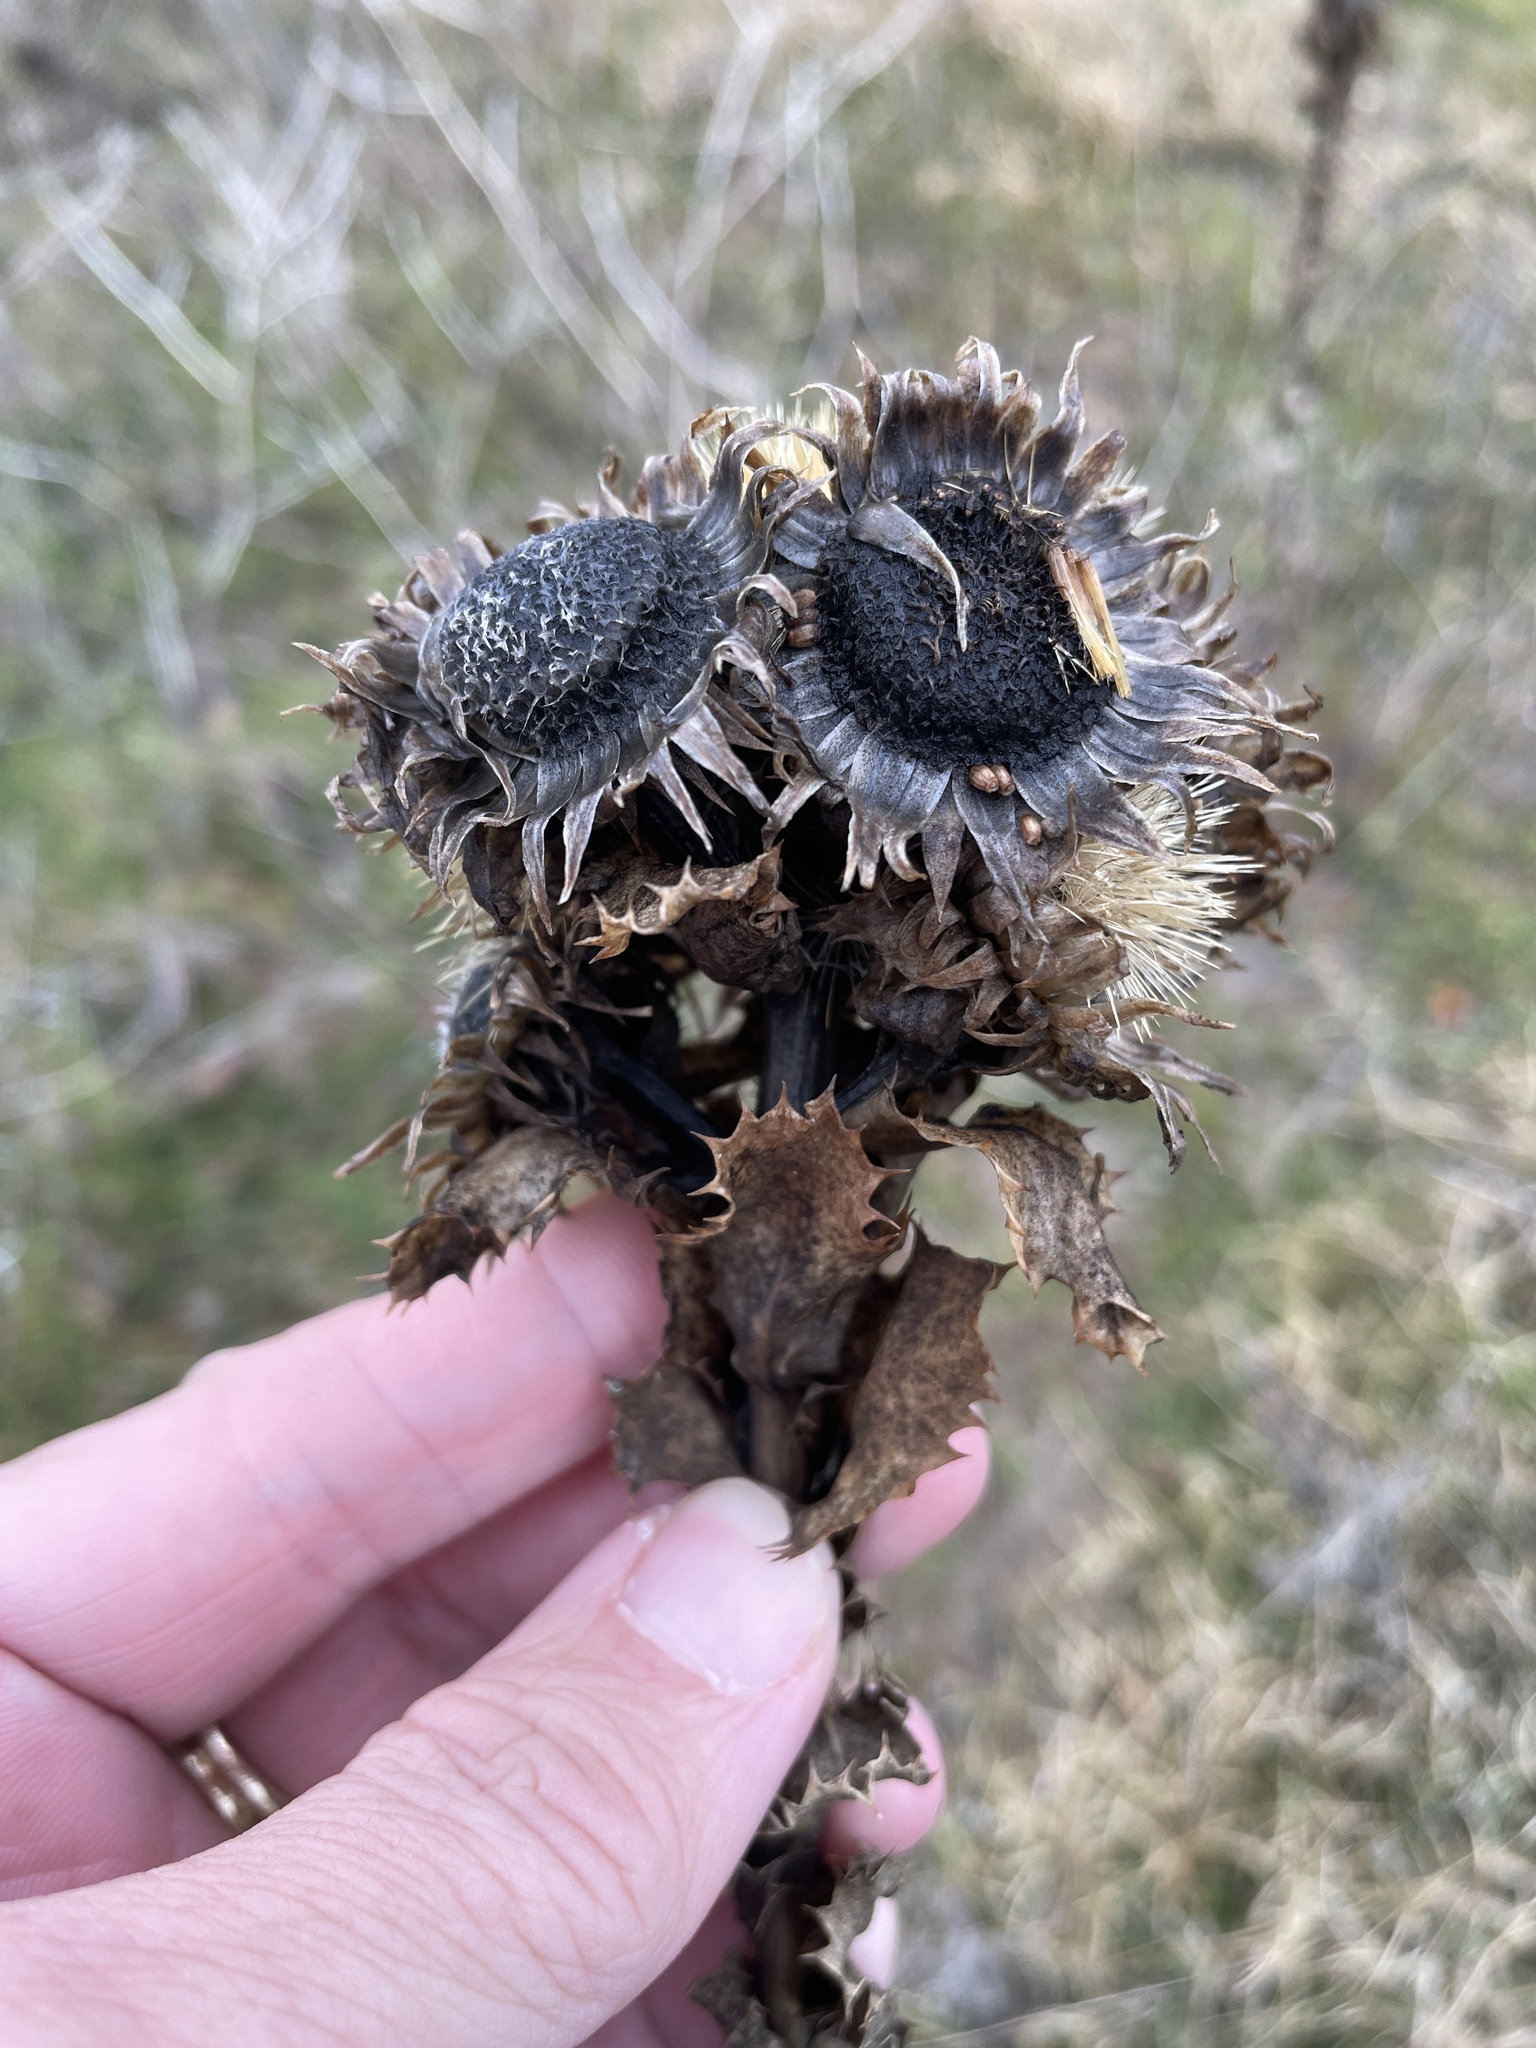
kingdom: Plantae
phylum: Tracheophyta
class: Magnoliopsida
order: Asterales
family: Asteraceae
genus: Grindelia
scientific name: Grindelia ciliata
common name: Goldenweed
